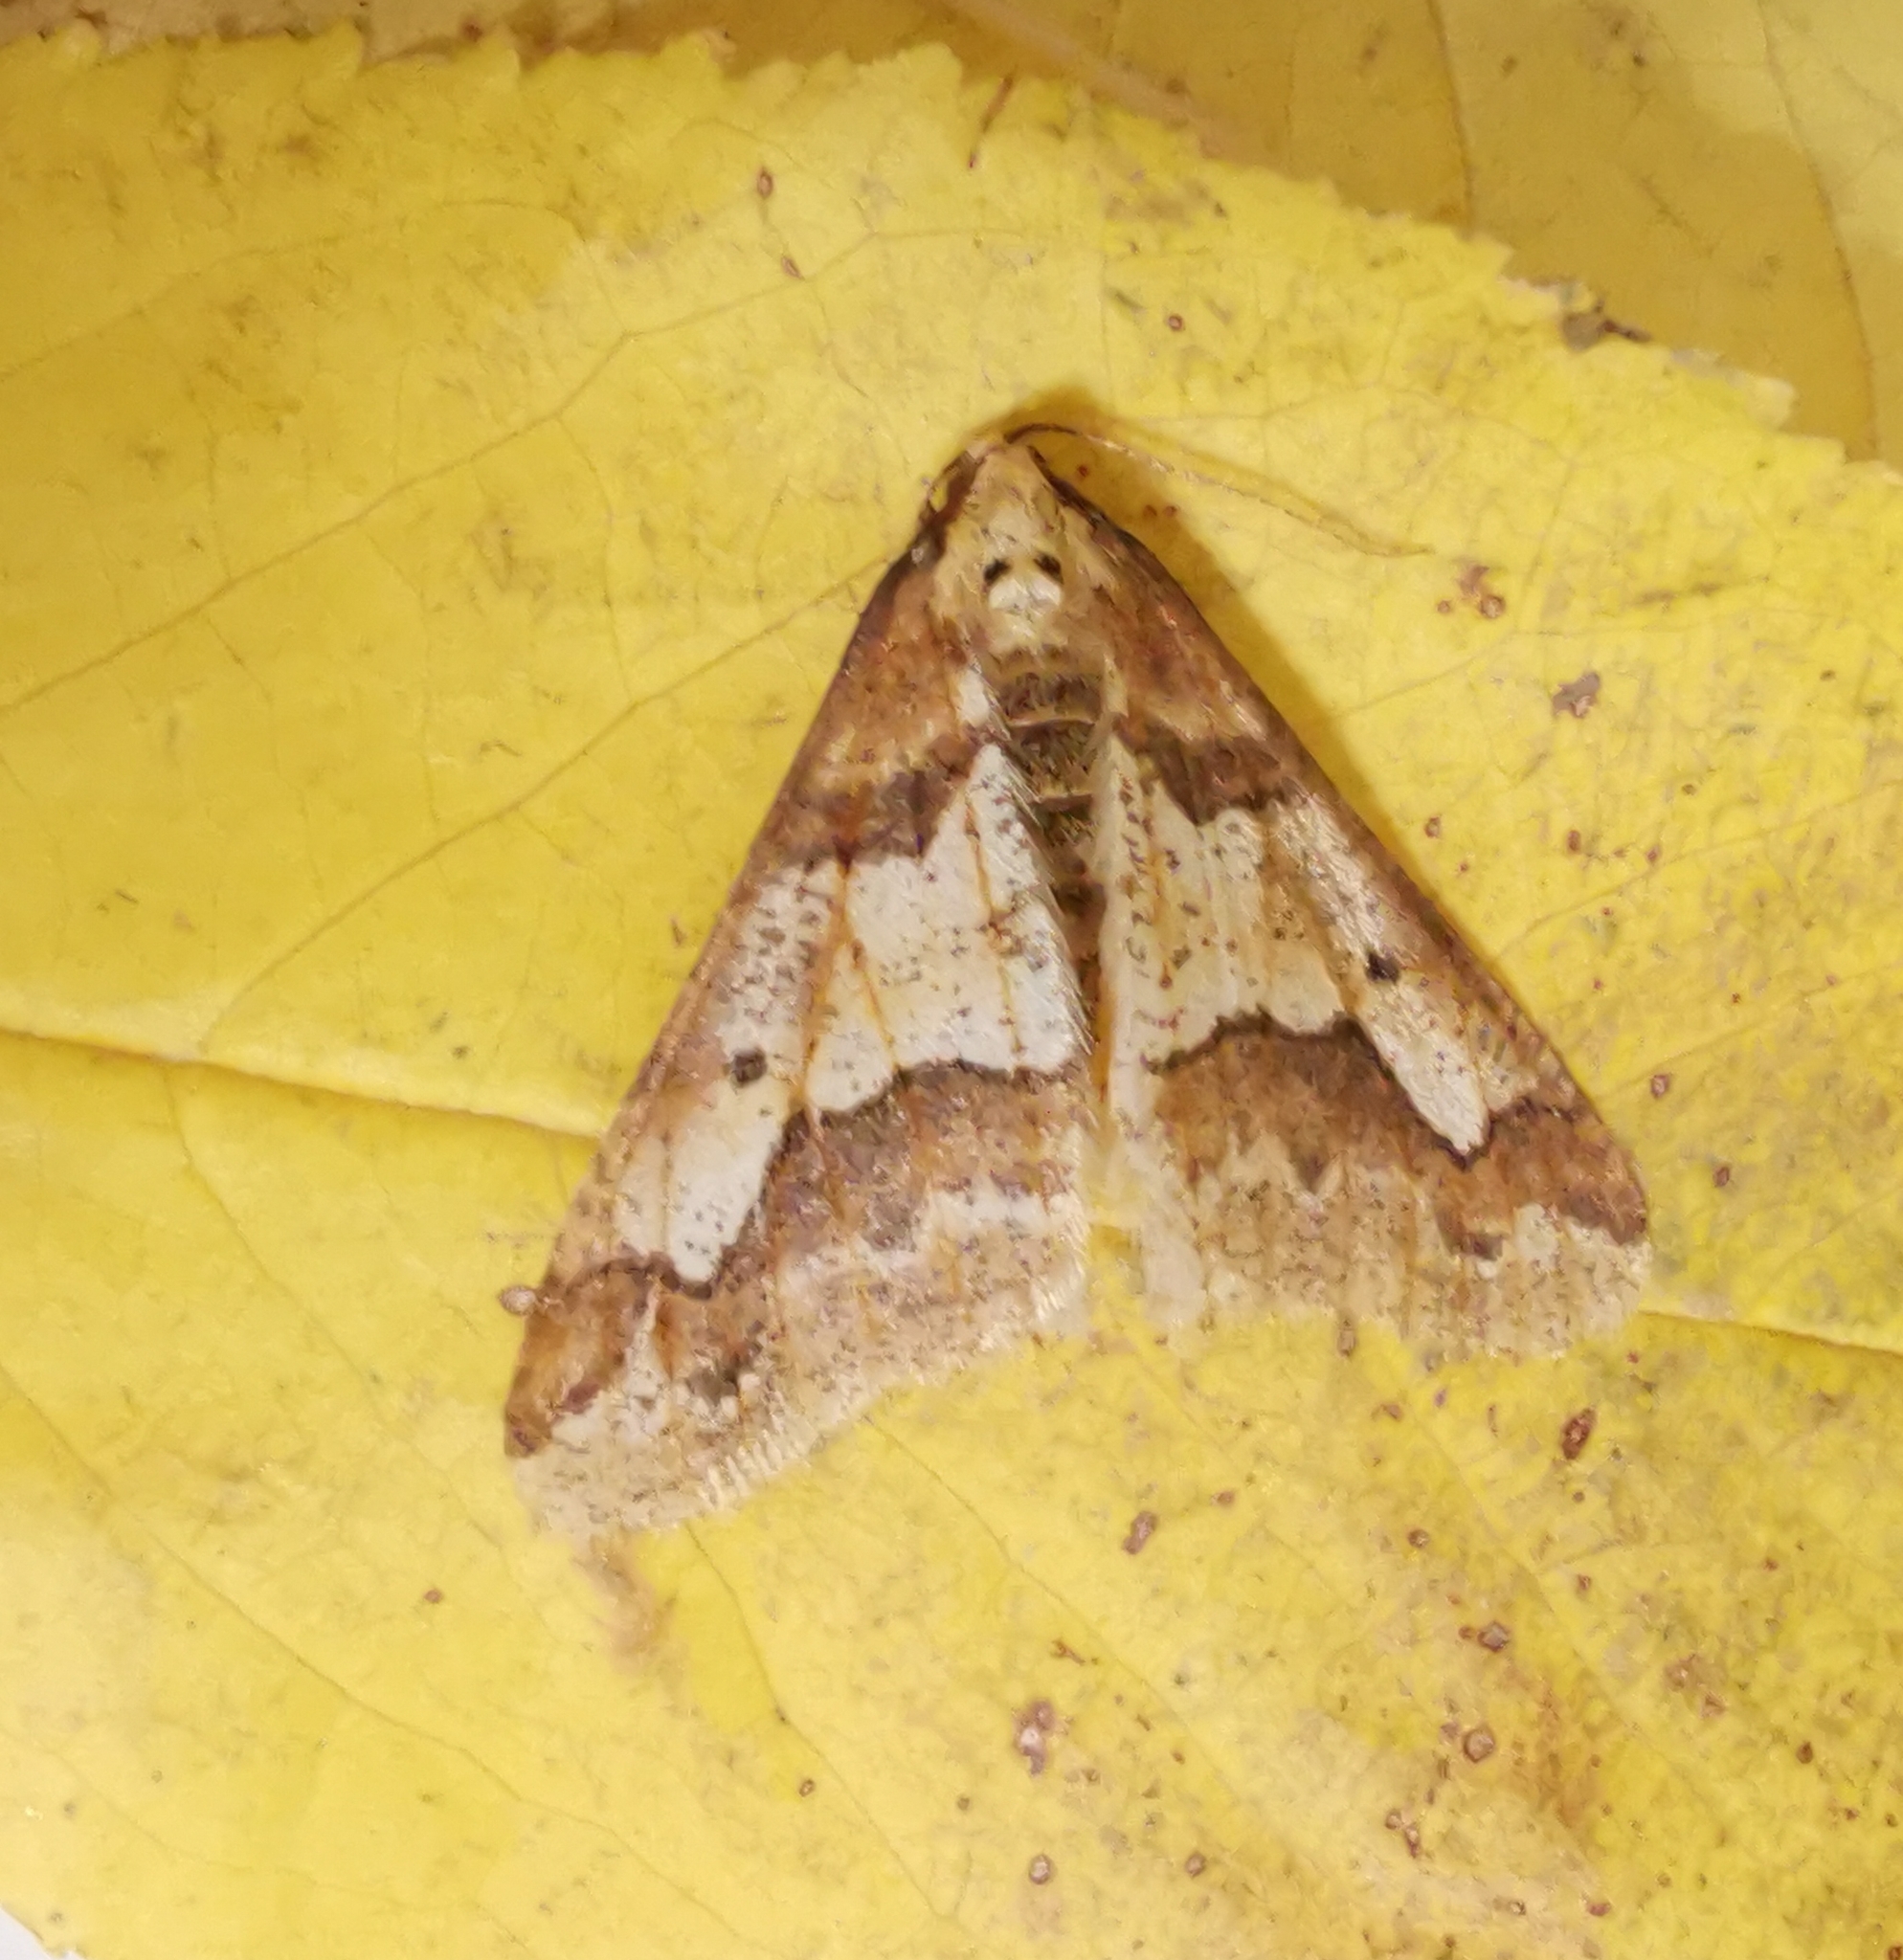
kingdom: Animalia
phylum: Arthropoda
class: Insecta
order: Lepidoptera
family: Geometridae
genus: Erannis
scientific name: Erannis defoliaria
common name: Mottled umber
